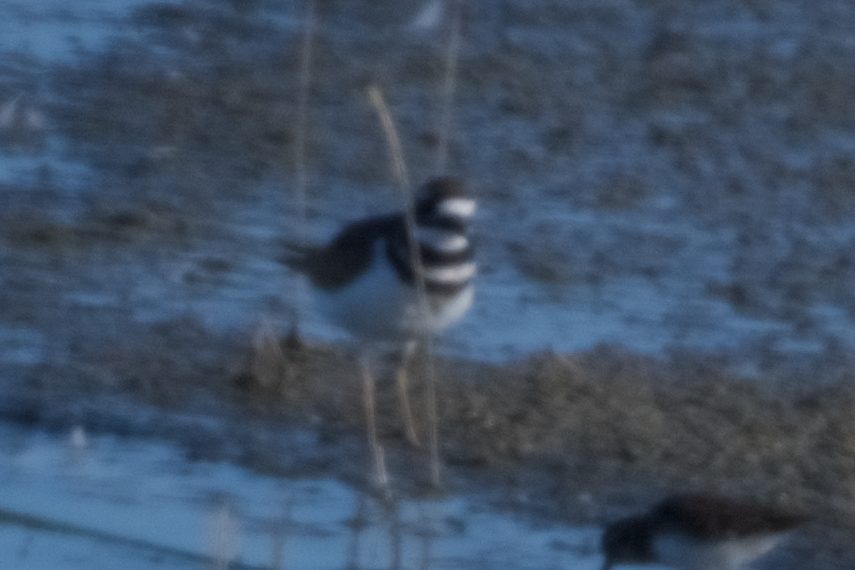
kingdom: Animalia
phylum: Chordata
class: Aves
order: Charadriiformes
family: Charadriidae
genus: Charadrius
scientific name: Charadrius vociferus
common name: Killdeer
